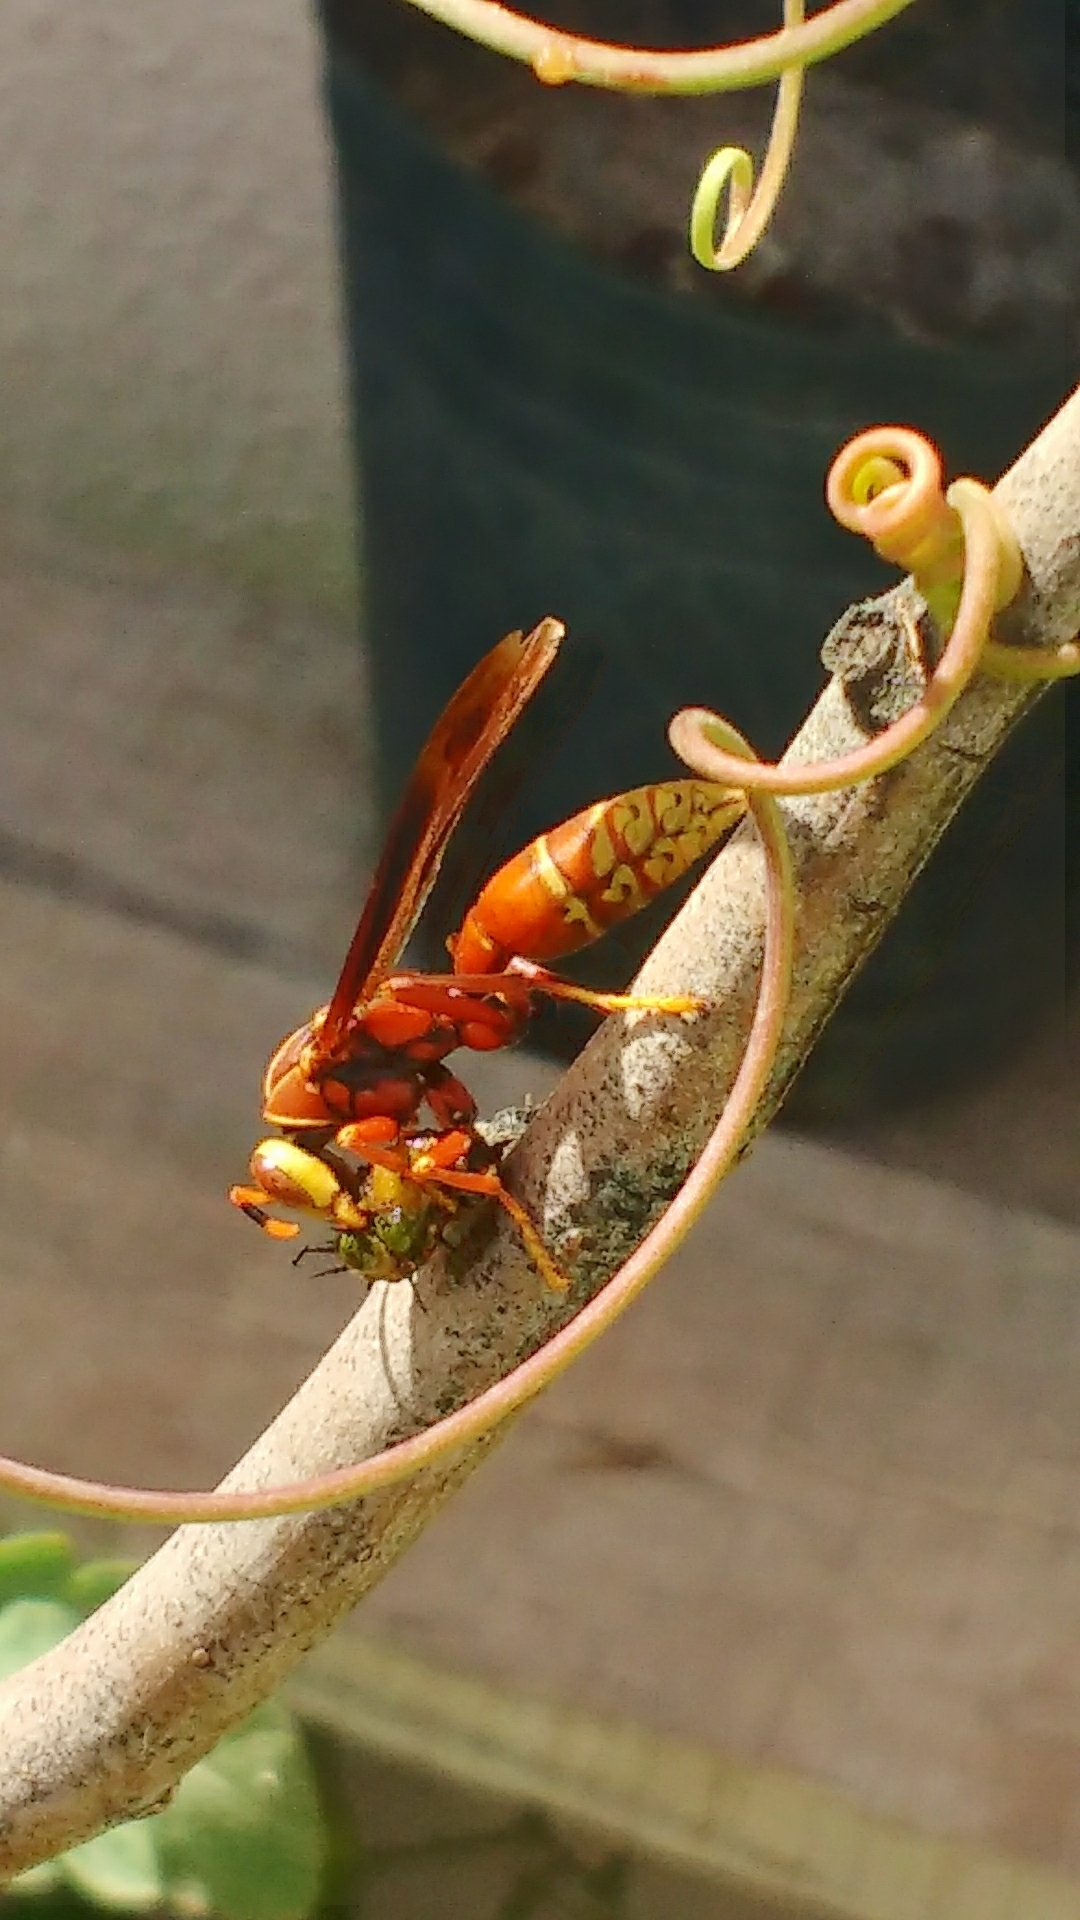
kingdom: Animalia
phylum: Arthropoda
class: Insecta
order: Hymenoptera
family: Eumenidae
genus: Polistes
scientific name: Polistes cavapyta
